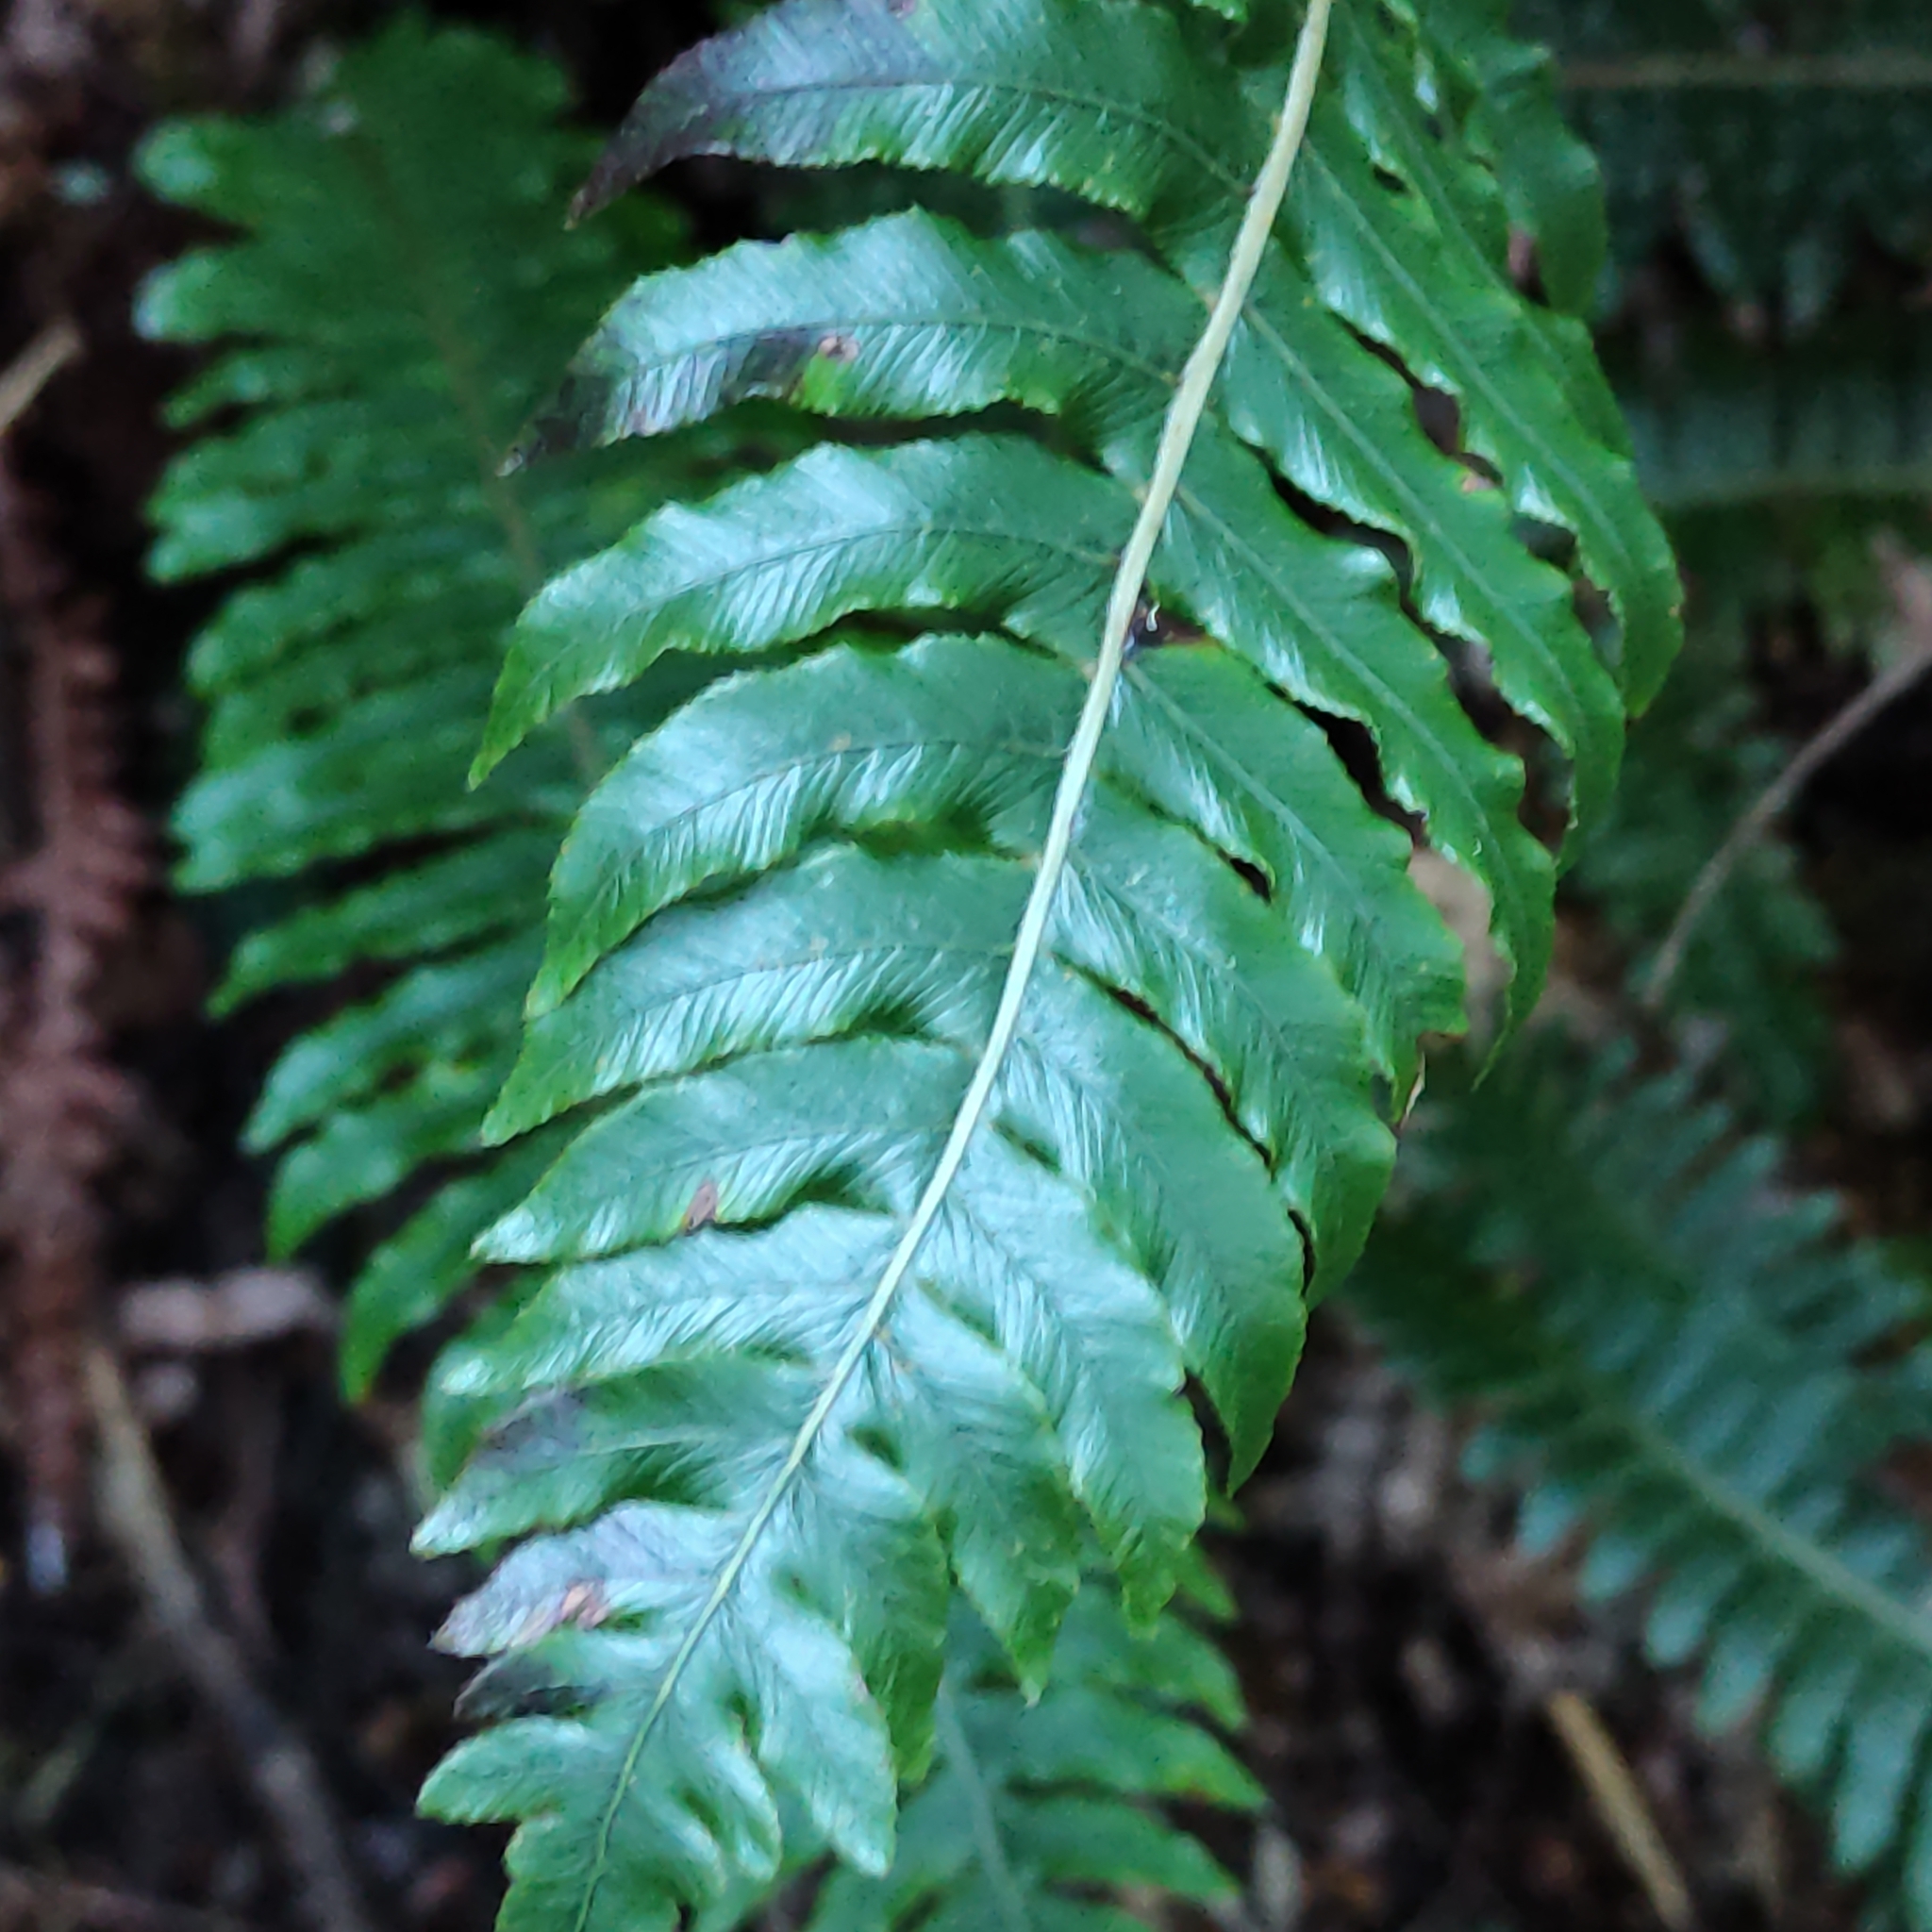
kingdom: Plantae
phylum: Tracheophyta
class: Polypodiopsida
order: Polypodiales
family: Blechnaceae
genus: Lomaria
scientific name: Lomaria discolor
